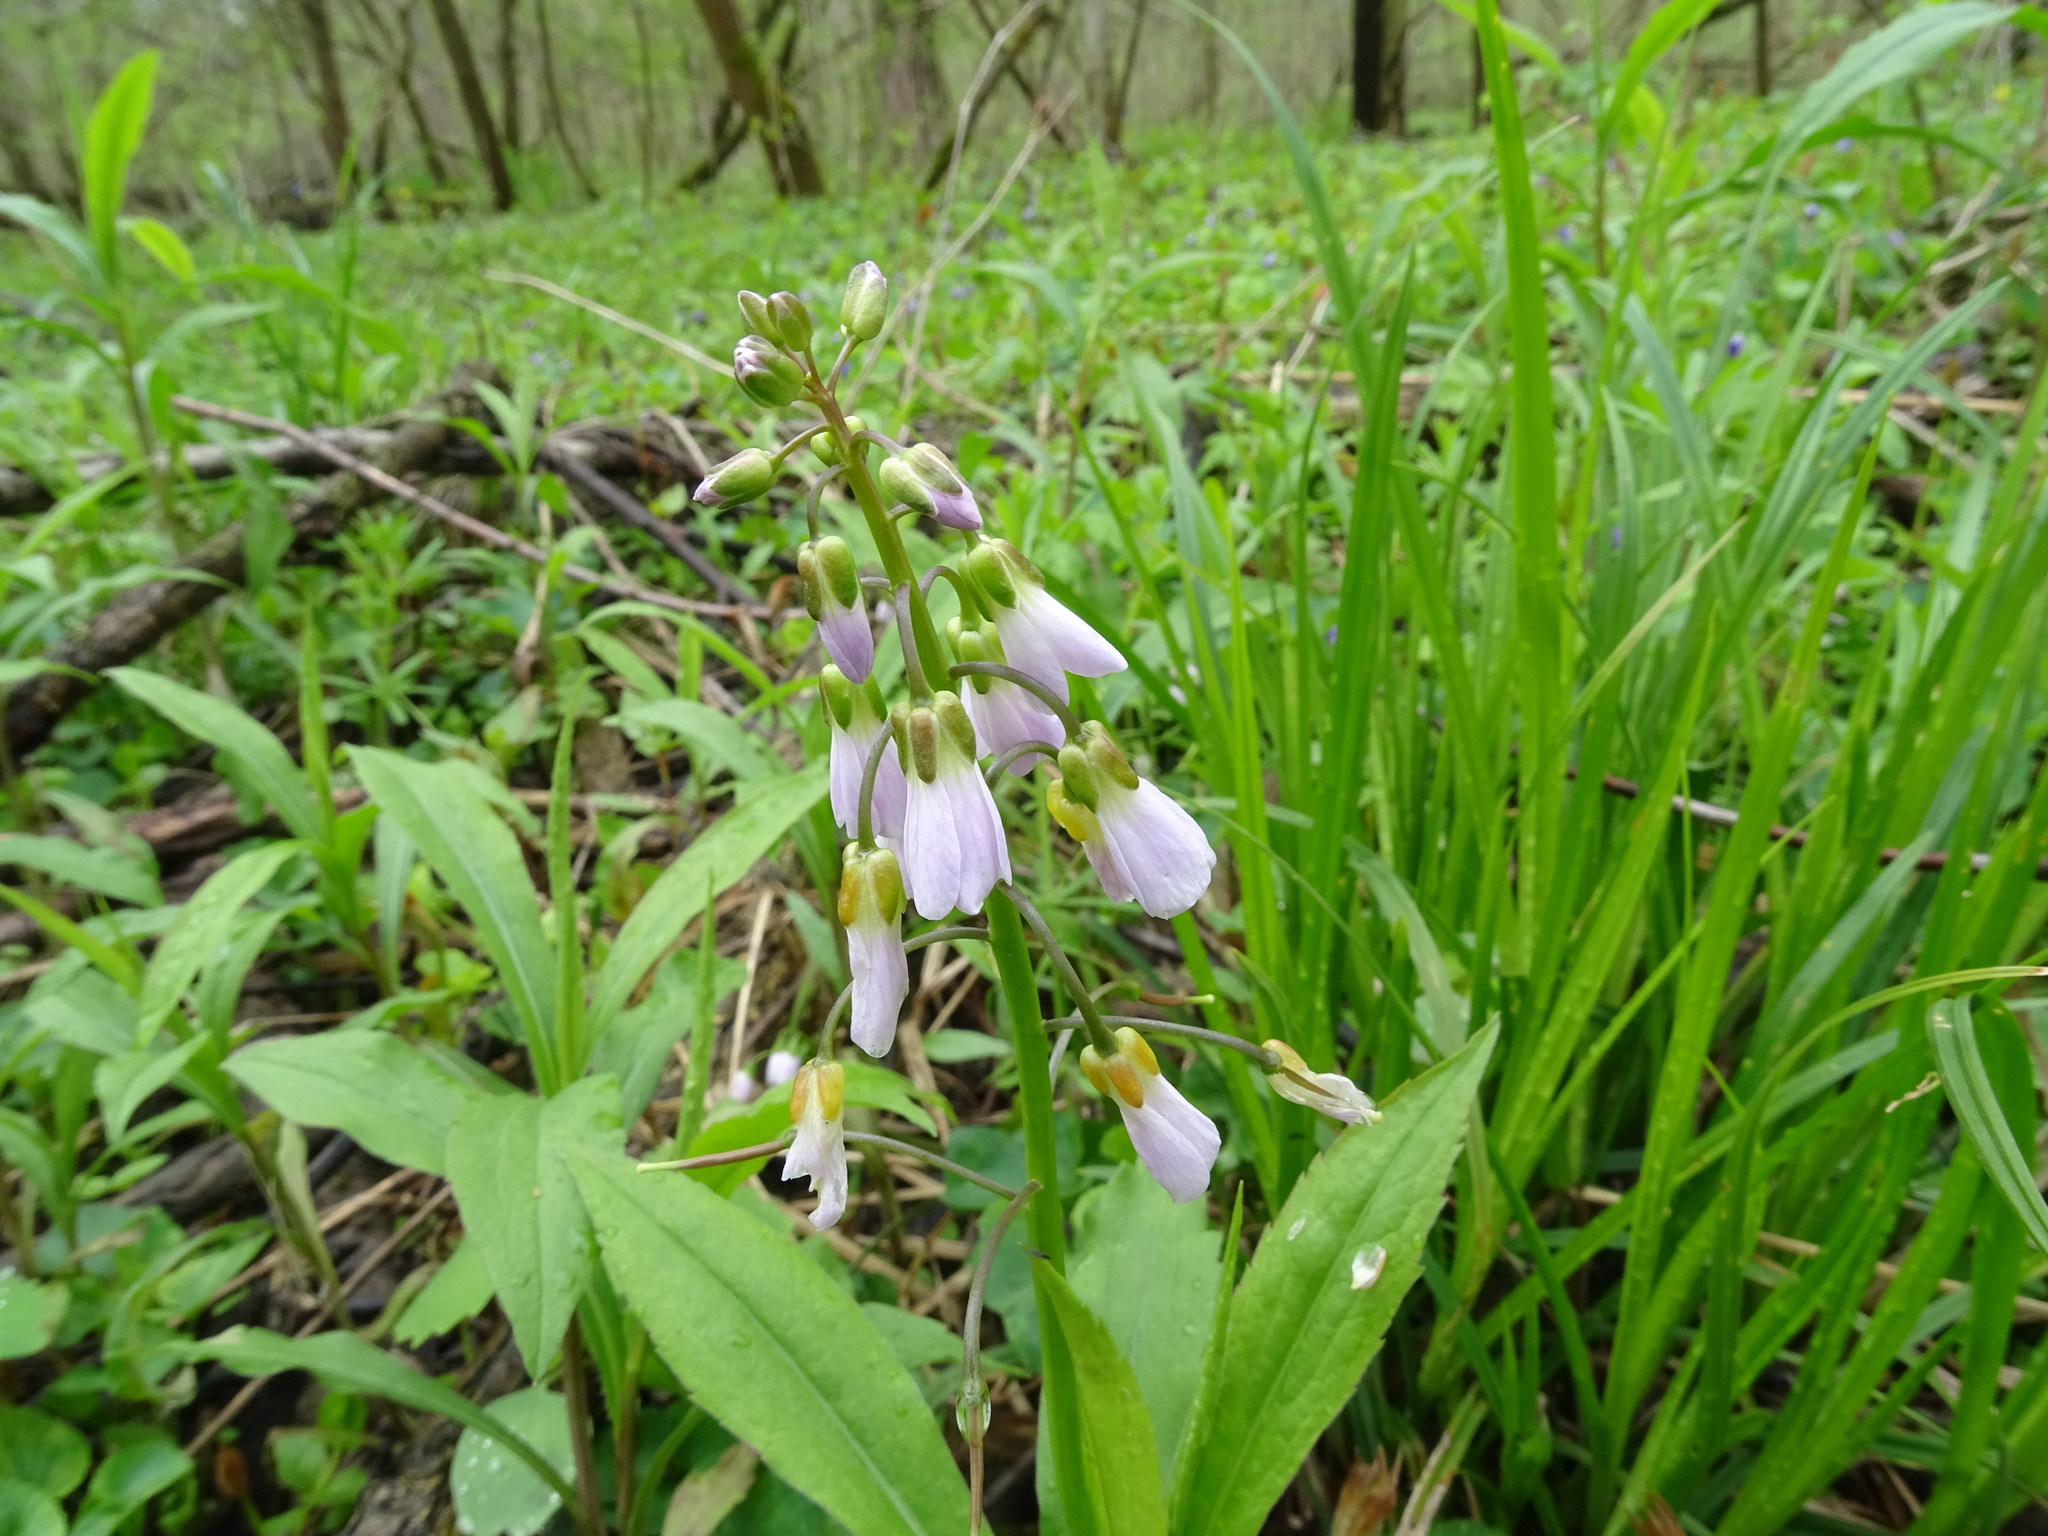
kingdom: Plantae
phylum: Tracheophyta
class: Magnoliopsida
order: Brassicales
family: Brassicaceae
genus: Cardamine
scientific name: Cardamine douglassii
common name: Purple cress
